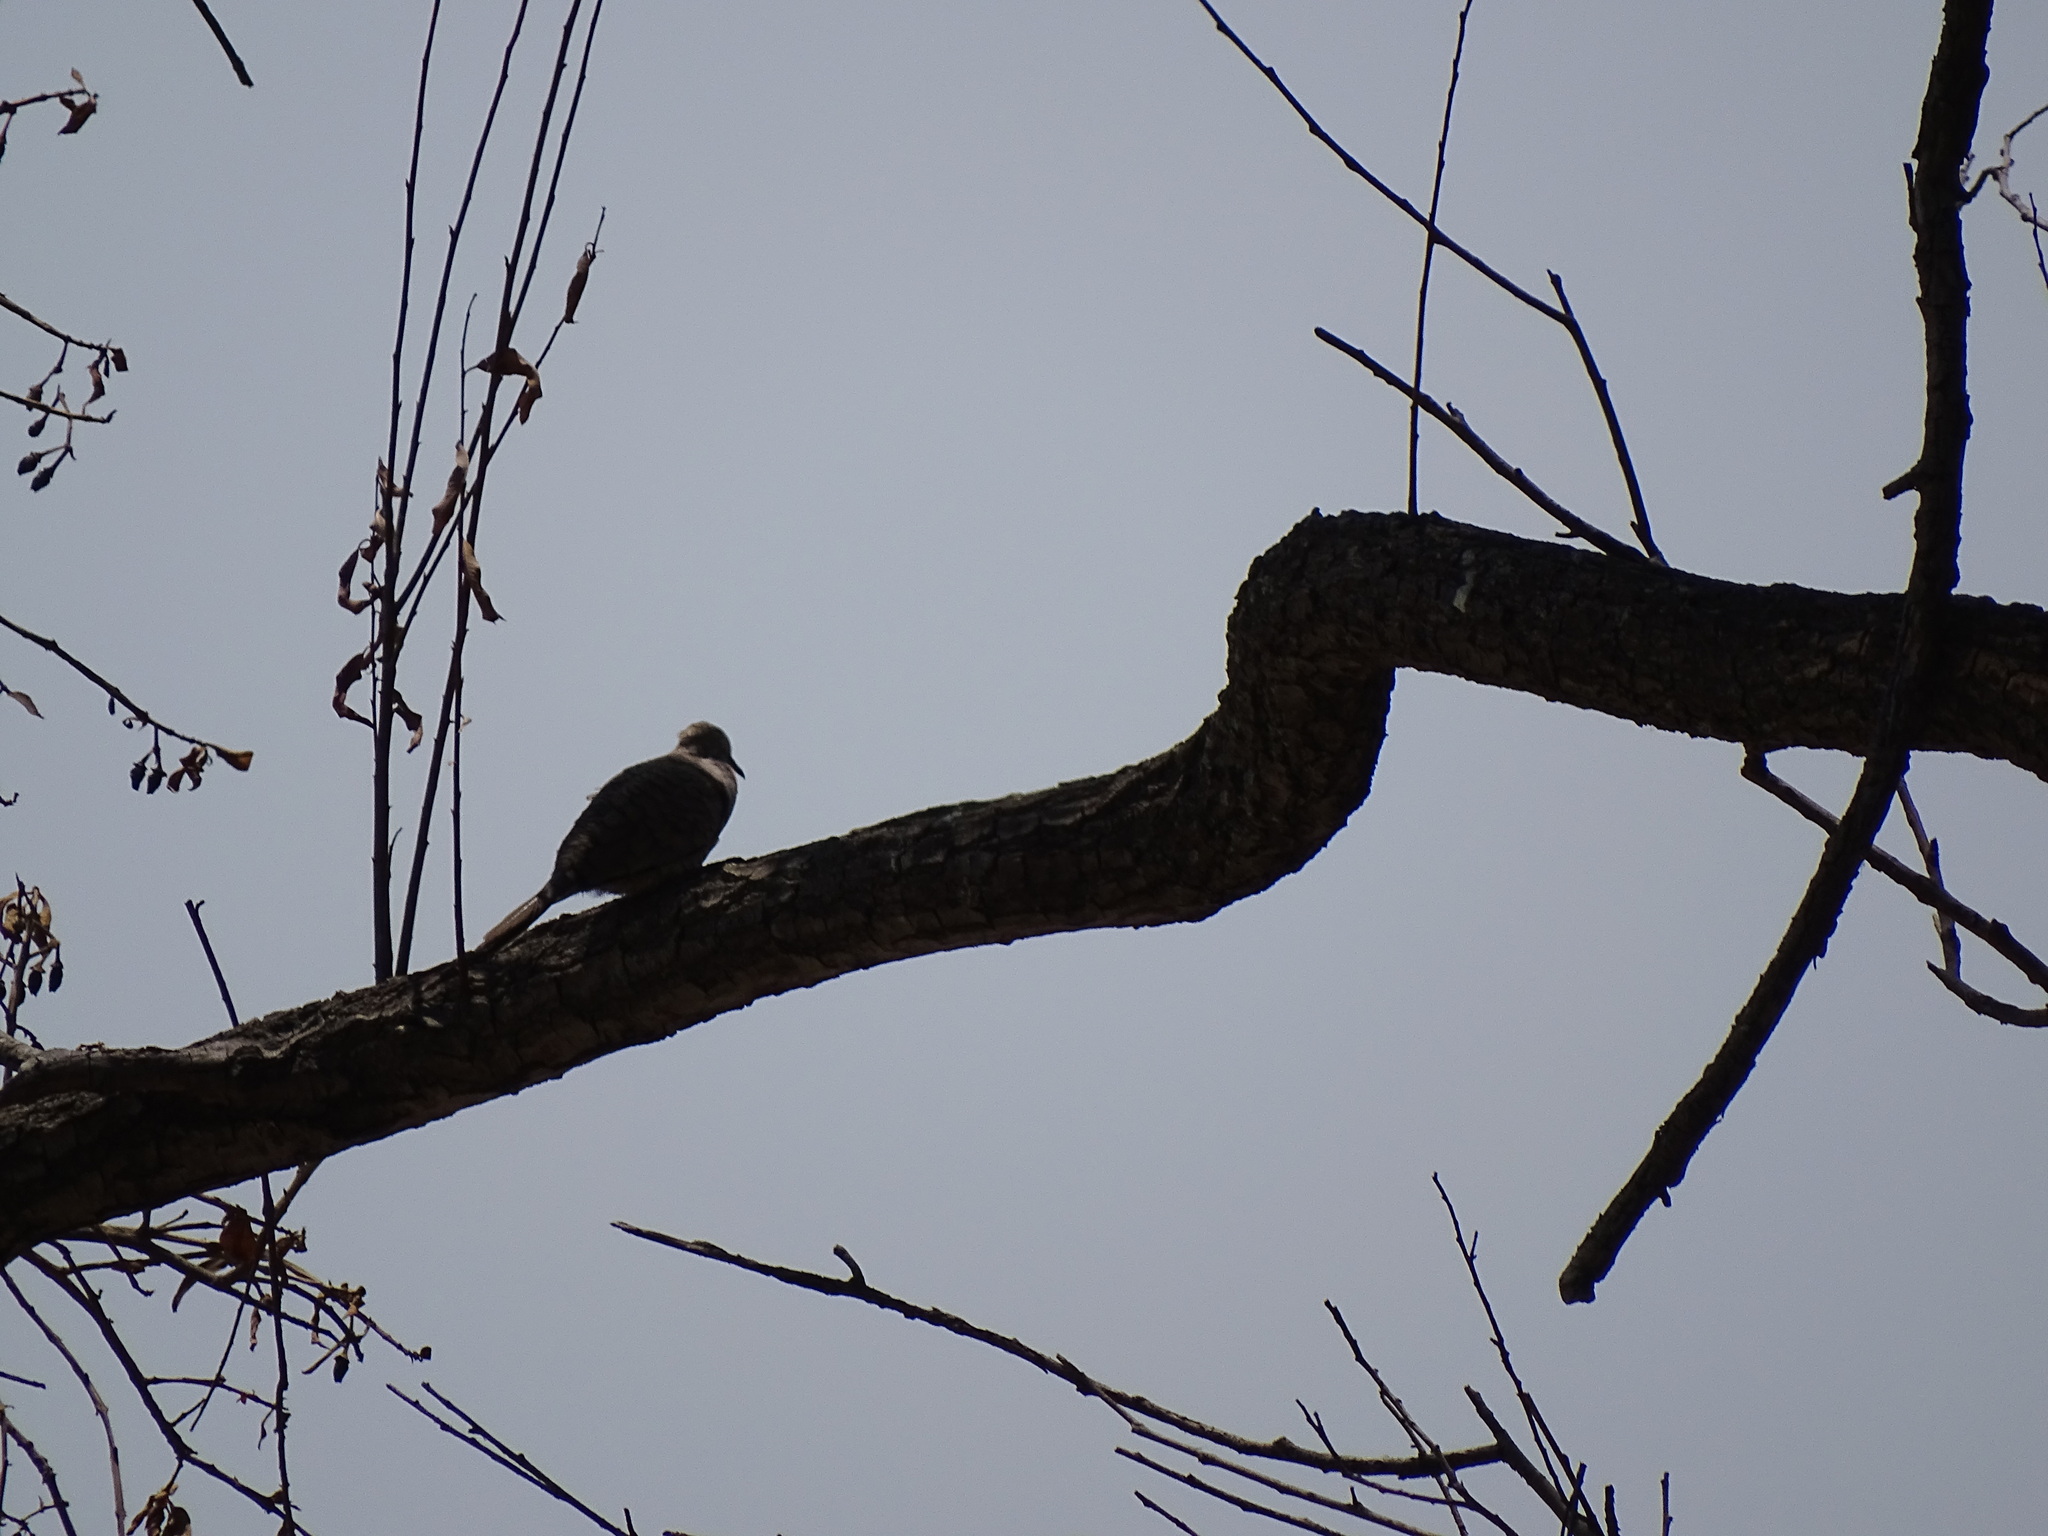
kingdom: Animalia
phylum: Chordata
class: Aves
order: Columbiformes
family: Columbidae
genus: Columbina
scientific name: Columbina inca
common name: Inca dove
